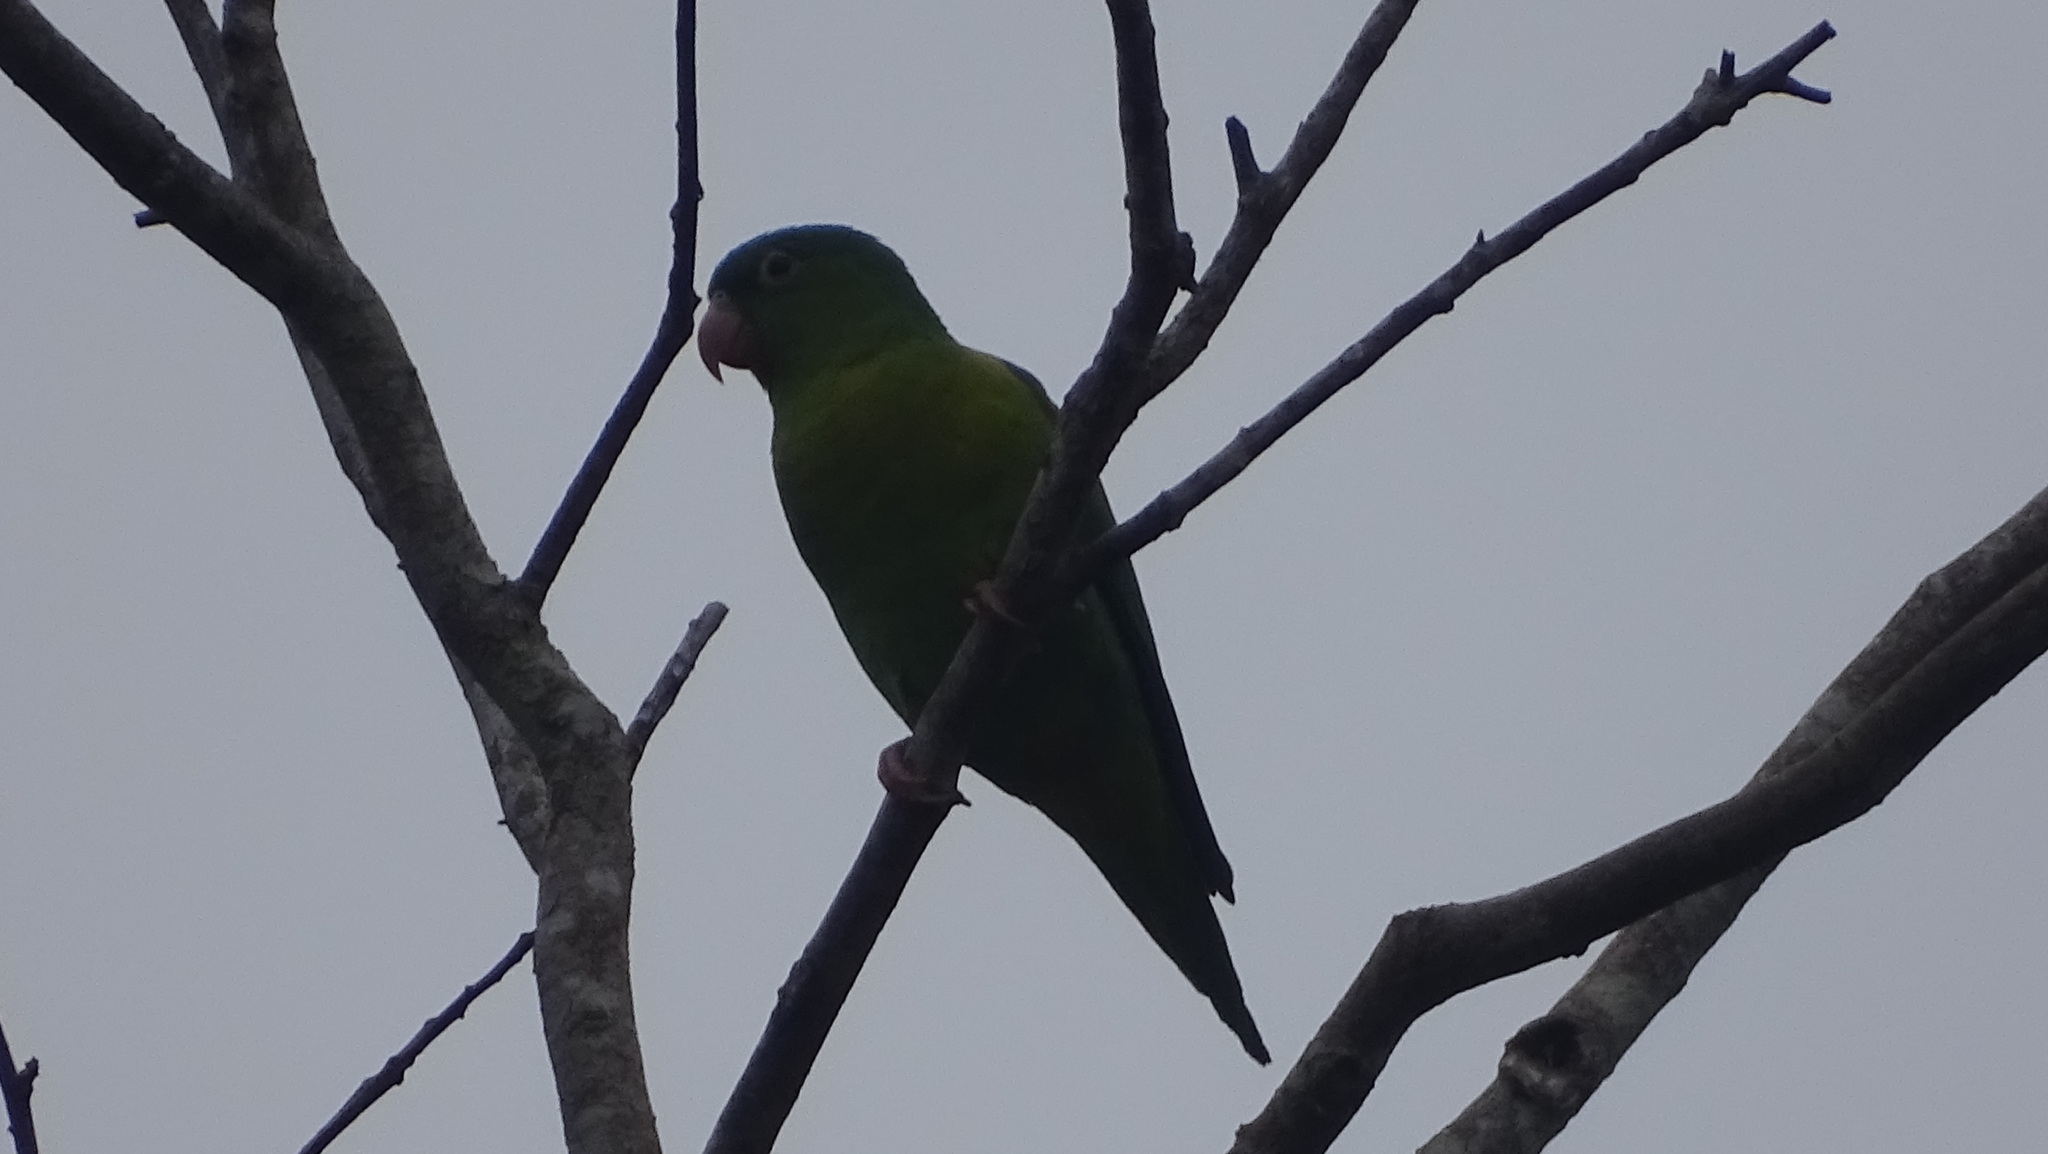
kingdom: Animalia
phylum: Chordata
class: Aves
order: Psittaciformes
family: Psittacidae
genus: Brotogeris
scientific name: Brotogeris jugularis
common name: Orange-chinned parakeet
